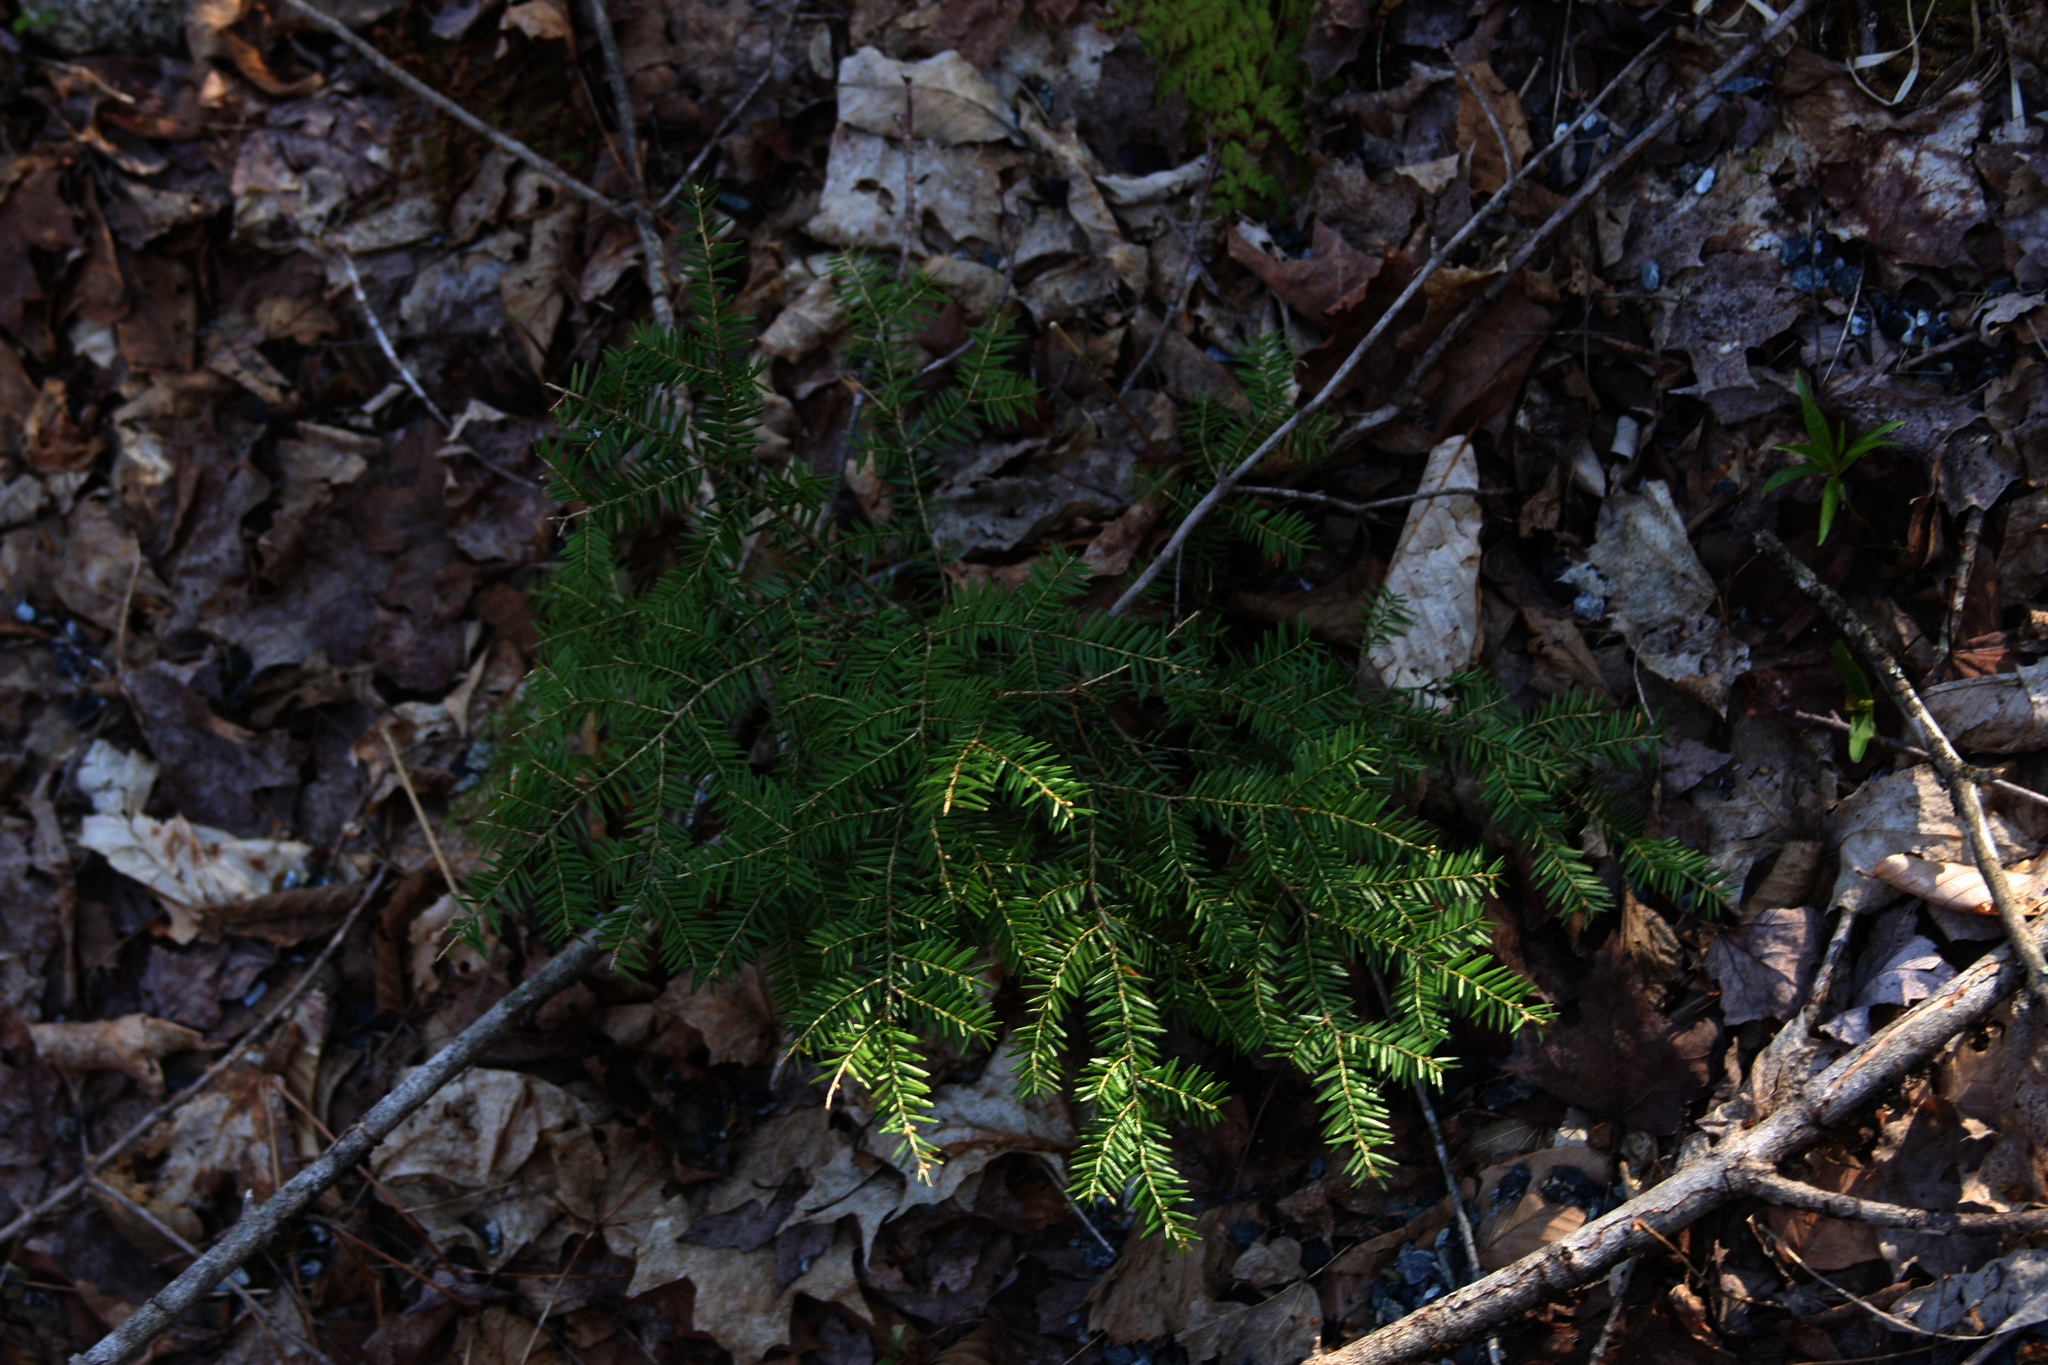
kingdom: Plantae
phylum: Tracheophyta
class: Pinopsida
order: Pinales
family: Pinaceae
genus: Tsuga
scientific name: Tsuga canadensis
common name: Eastern hemlock
